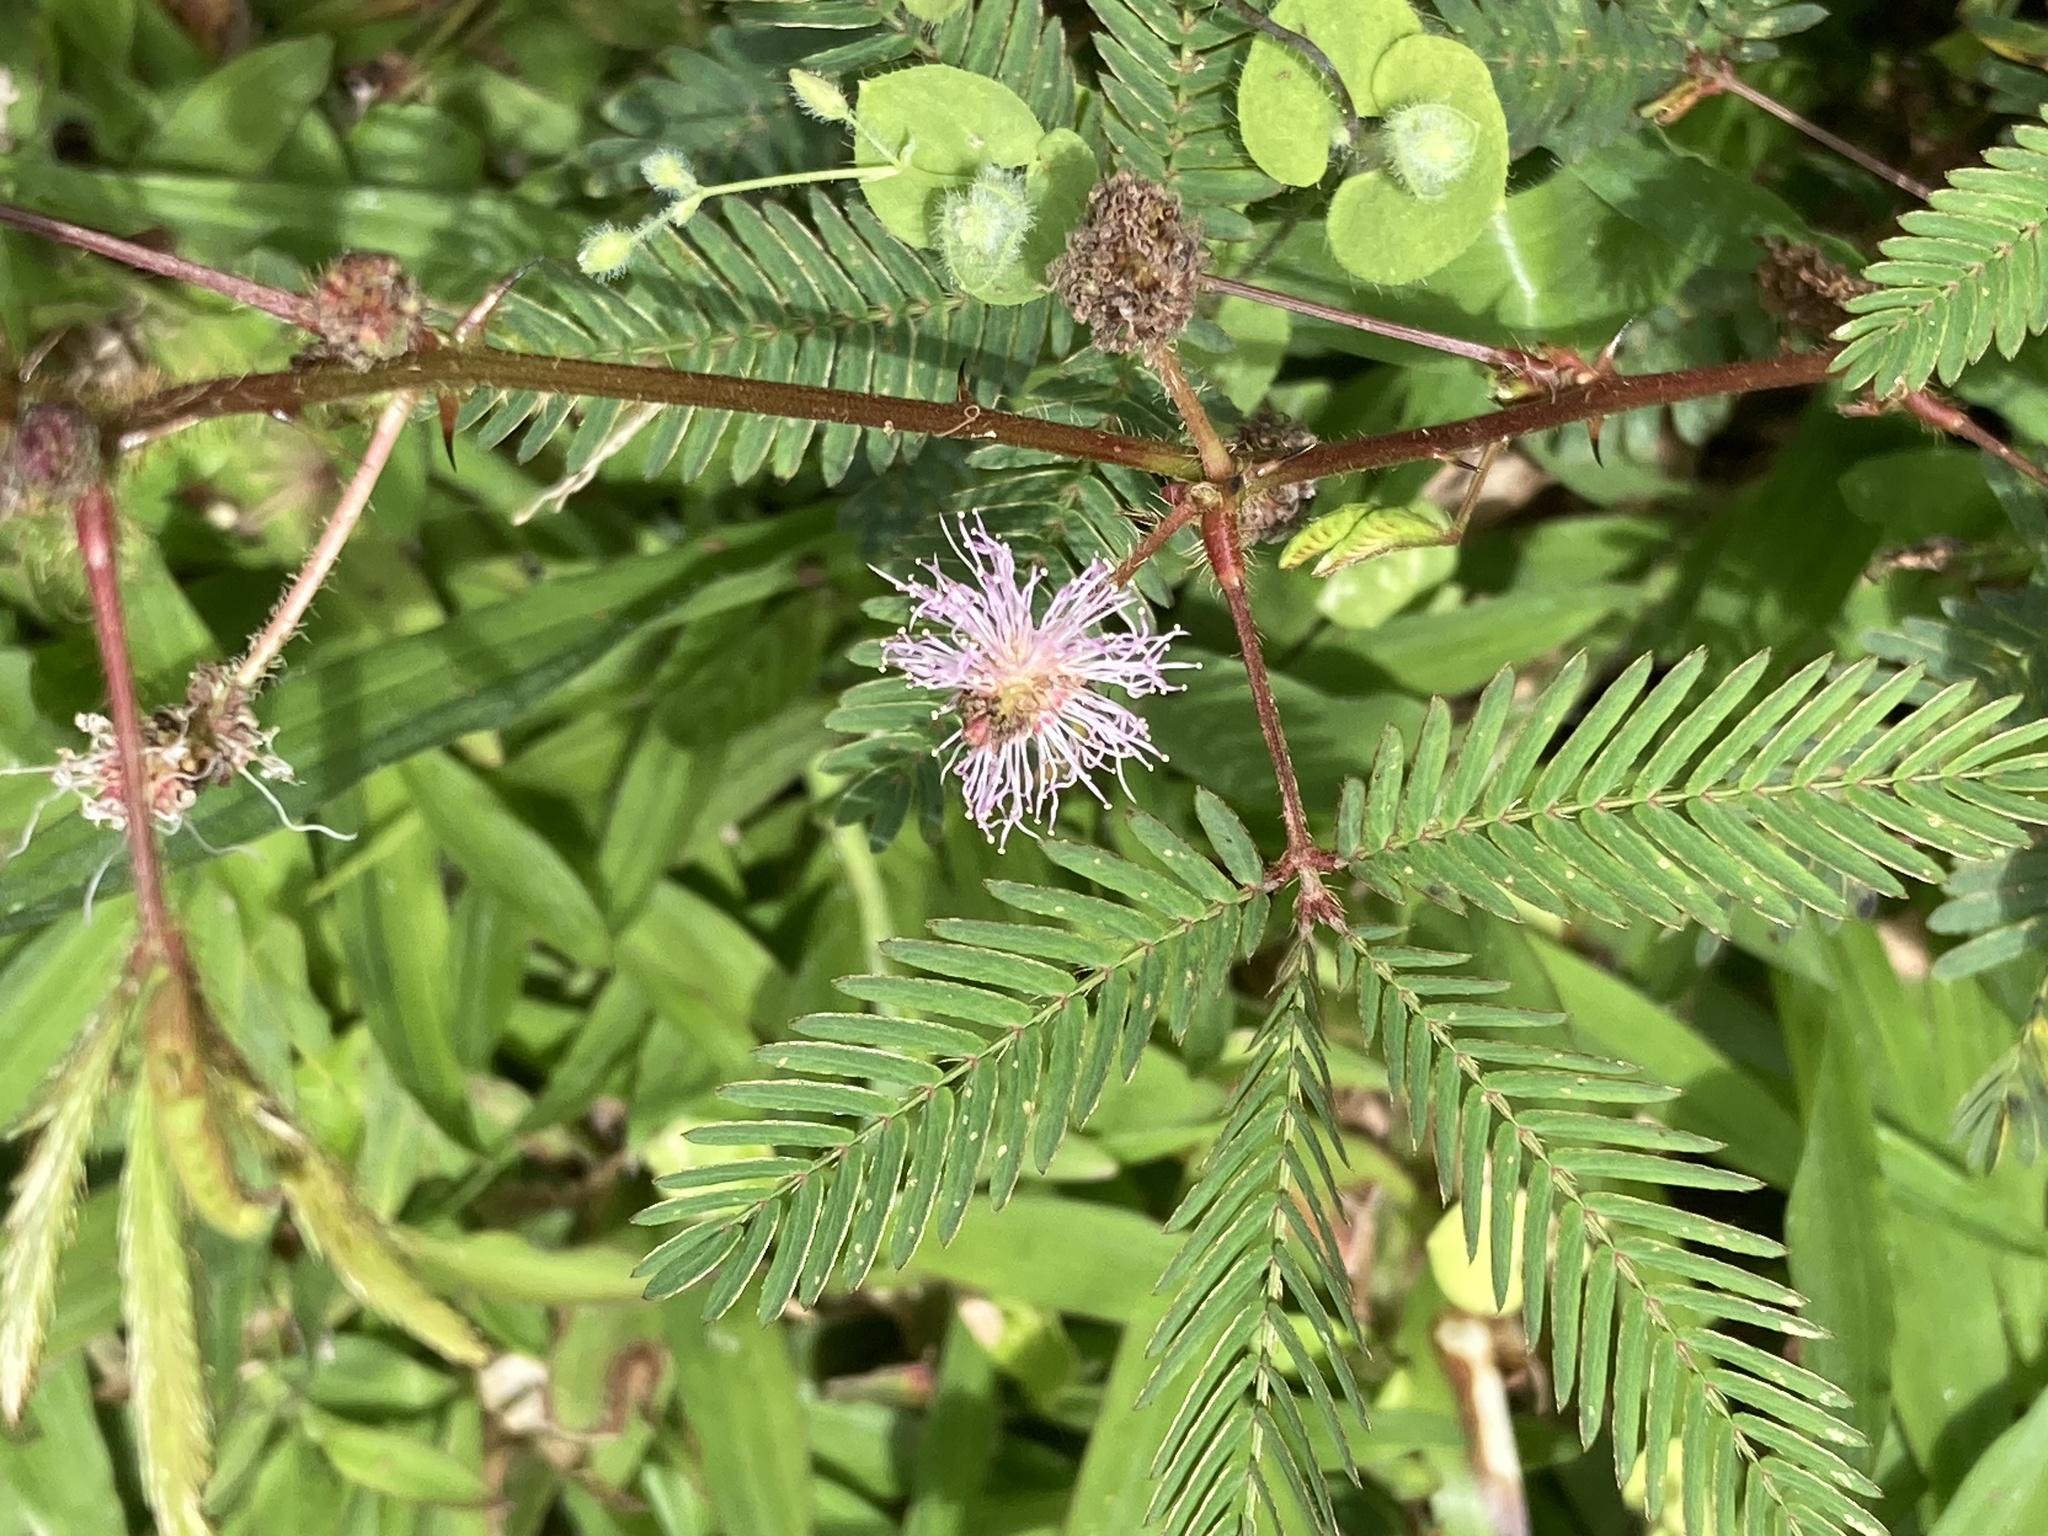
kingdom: Plantae
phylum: Tracheophyta
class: Magnoliopsida
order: Fabales
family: Fabaceae
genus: Mimosa
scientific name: Mimosa pudica
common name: Sensitive plant
